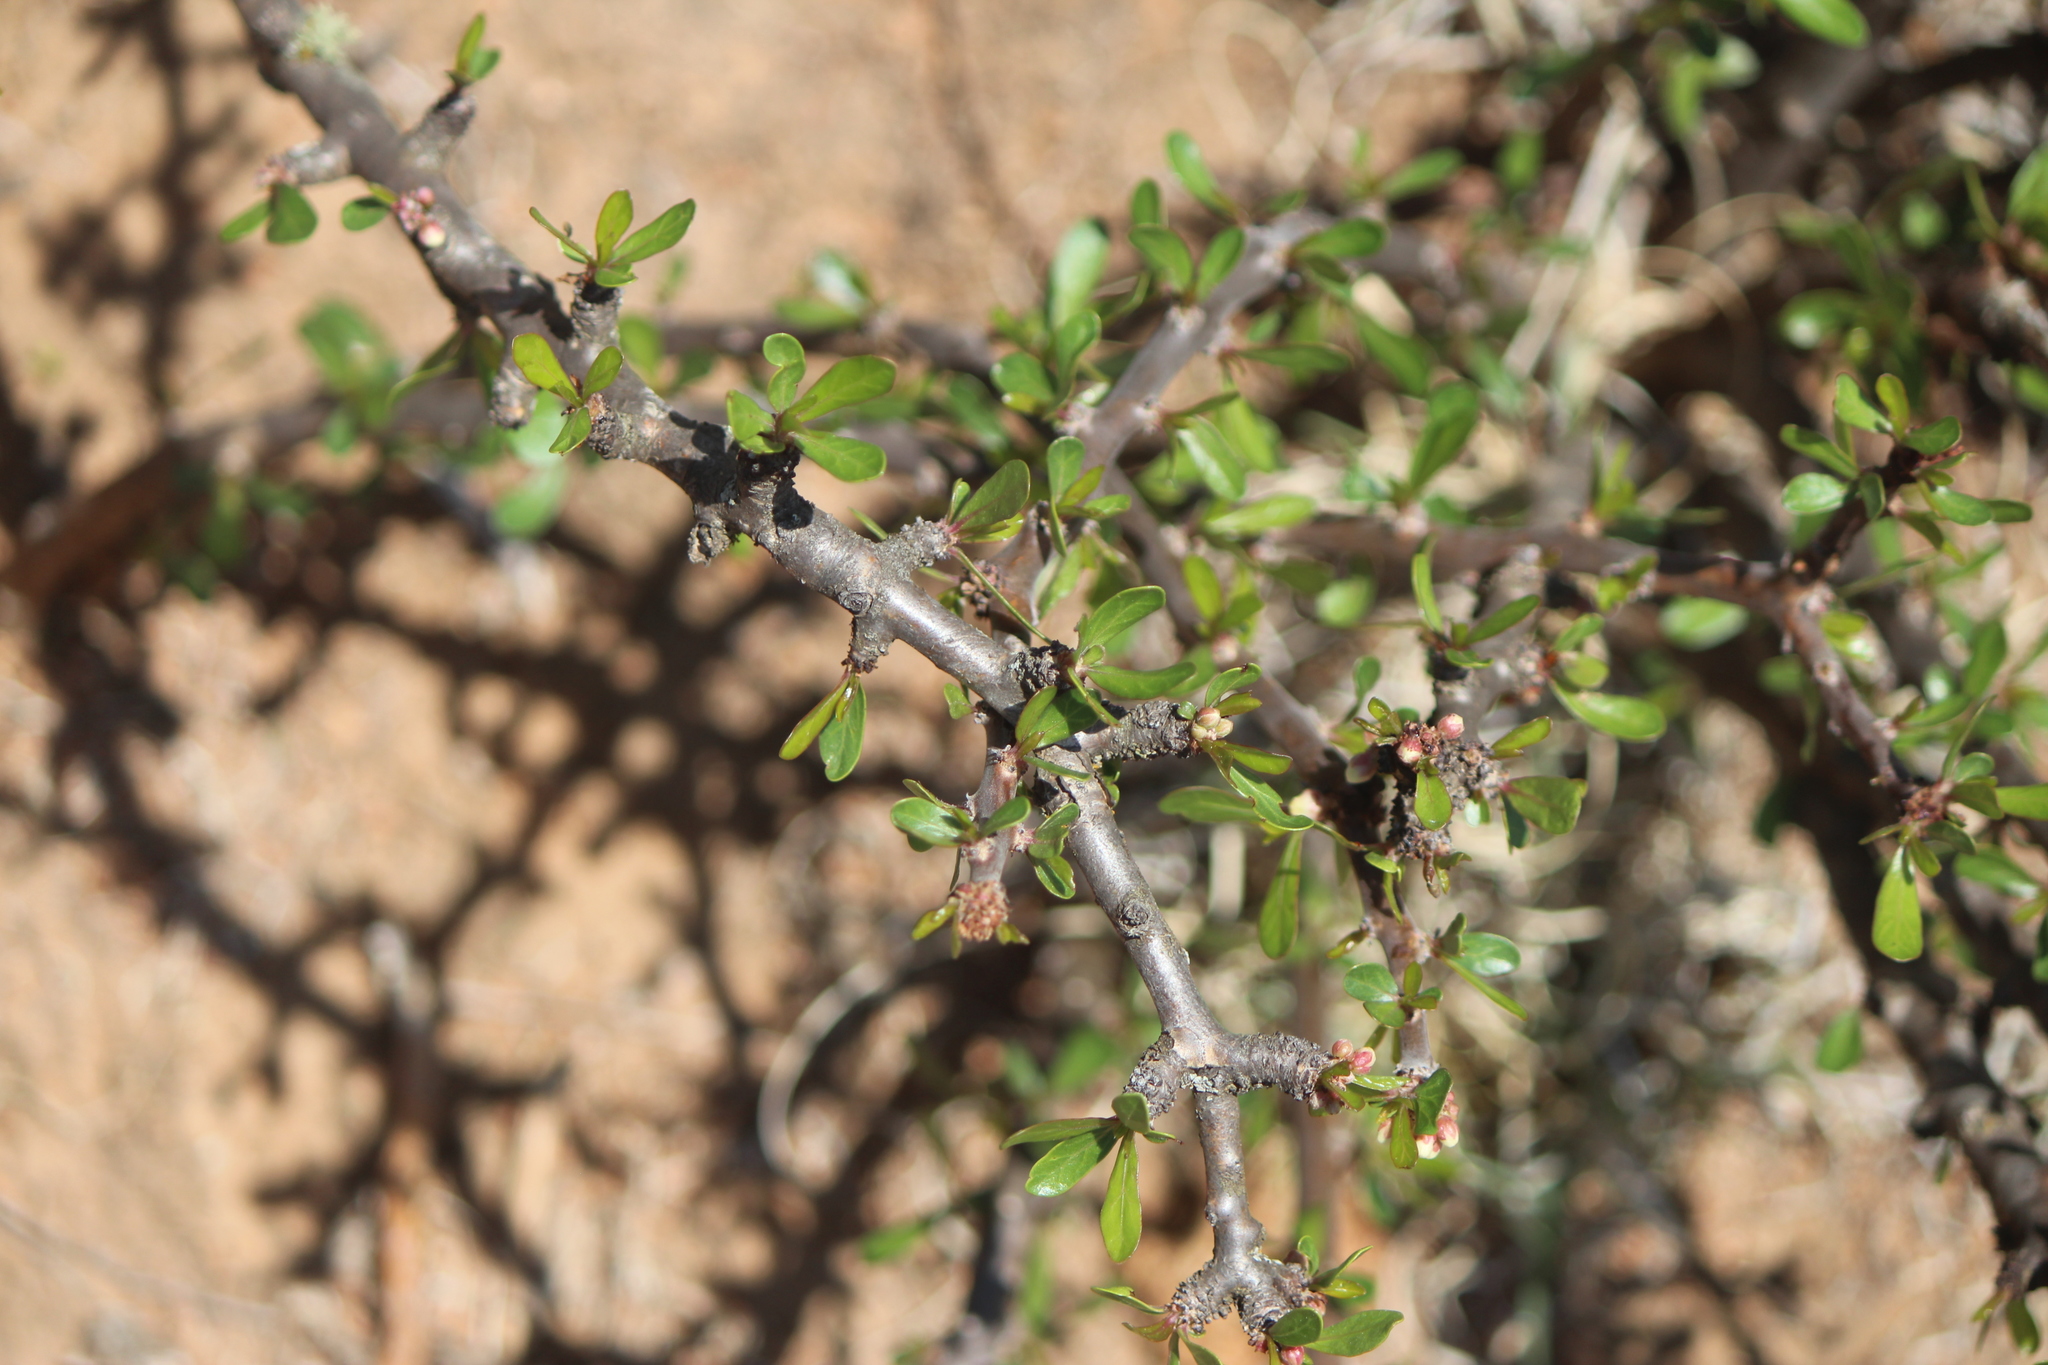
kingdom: Plantae
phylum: Tracheophyta
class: Magnoliopsida
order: Malpighiales
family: Euphorbiaceae
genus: Jatropha
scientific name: Jatropha dioica
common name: Leatherstem
